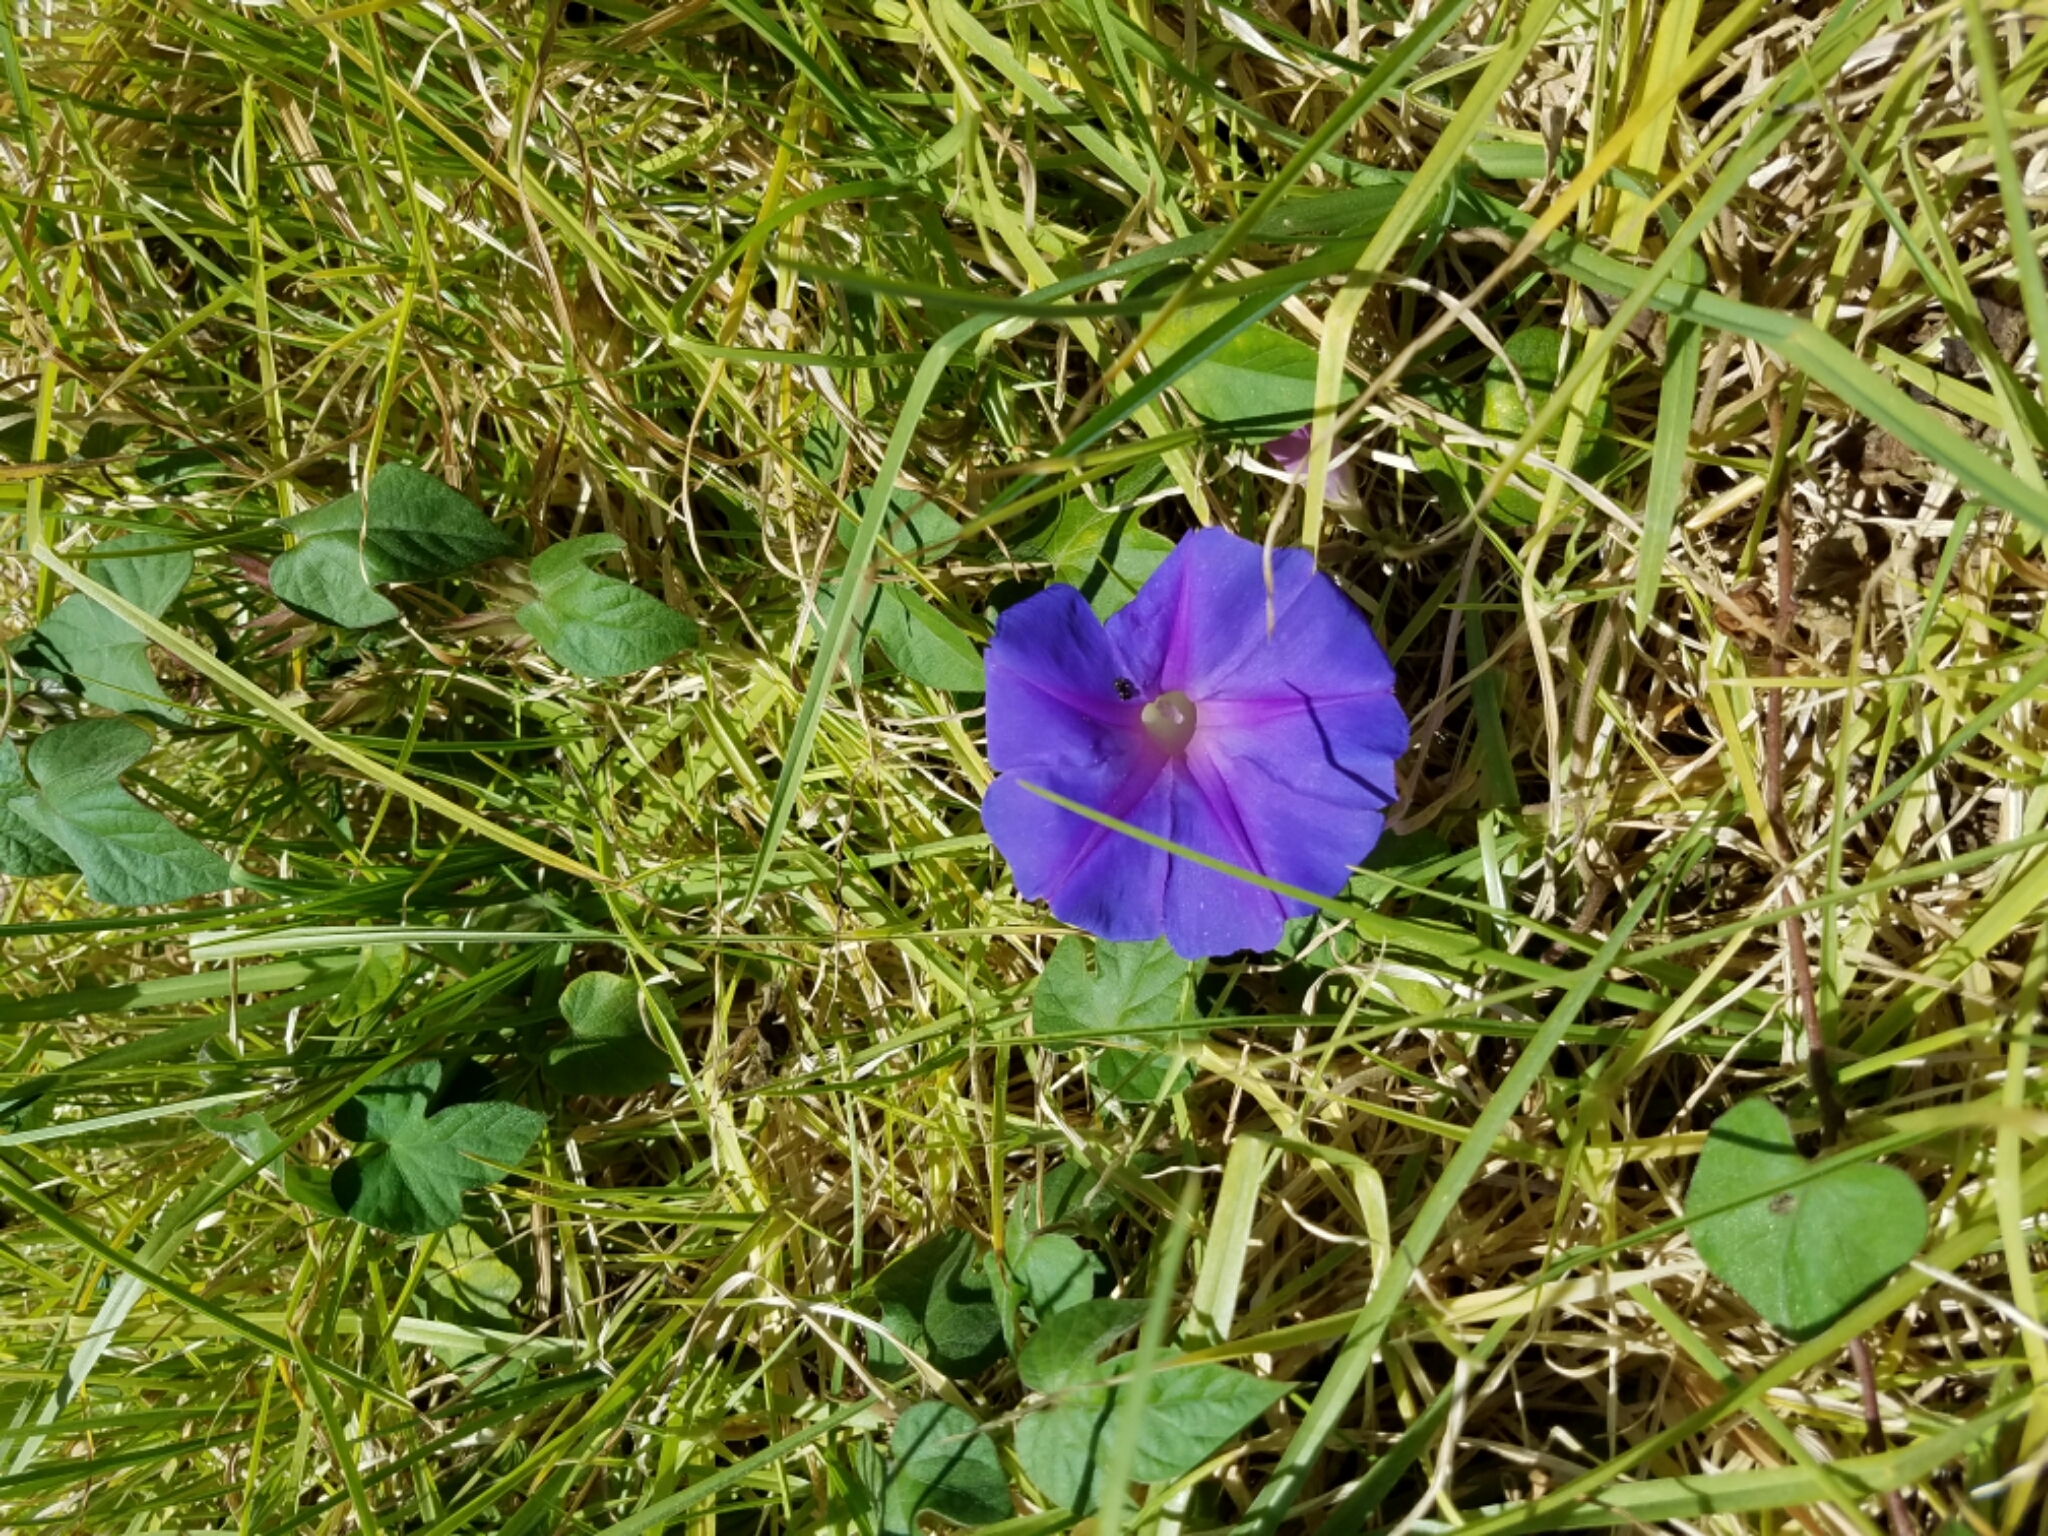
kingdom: Plantae
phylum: Tracheophyta
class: Magnoliopsida
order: Solanales
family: Convolvulaceae
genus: Ipomoea
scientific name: Ipomoea indica
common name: Blue dawnflower
